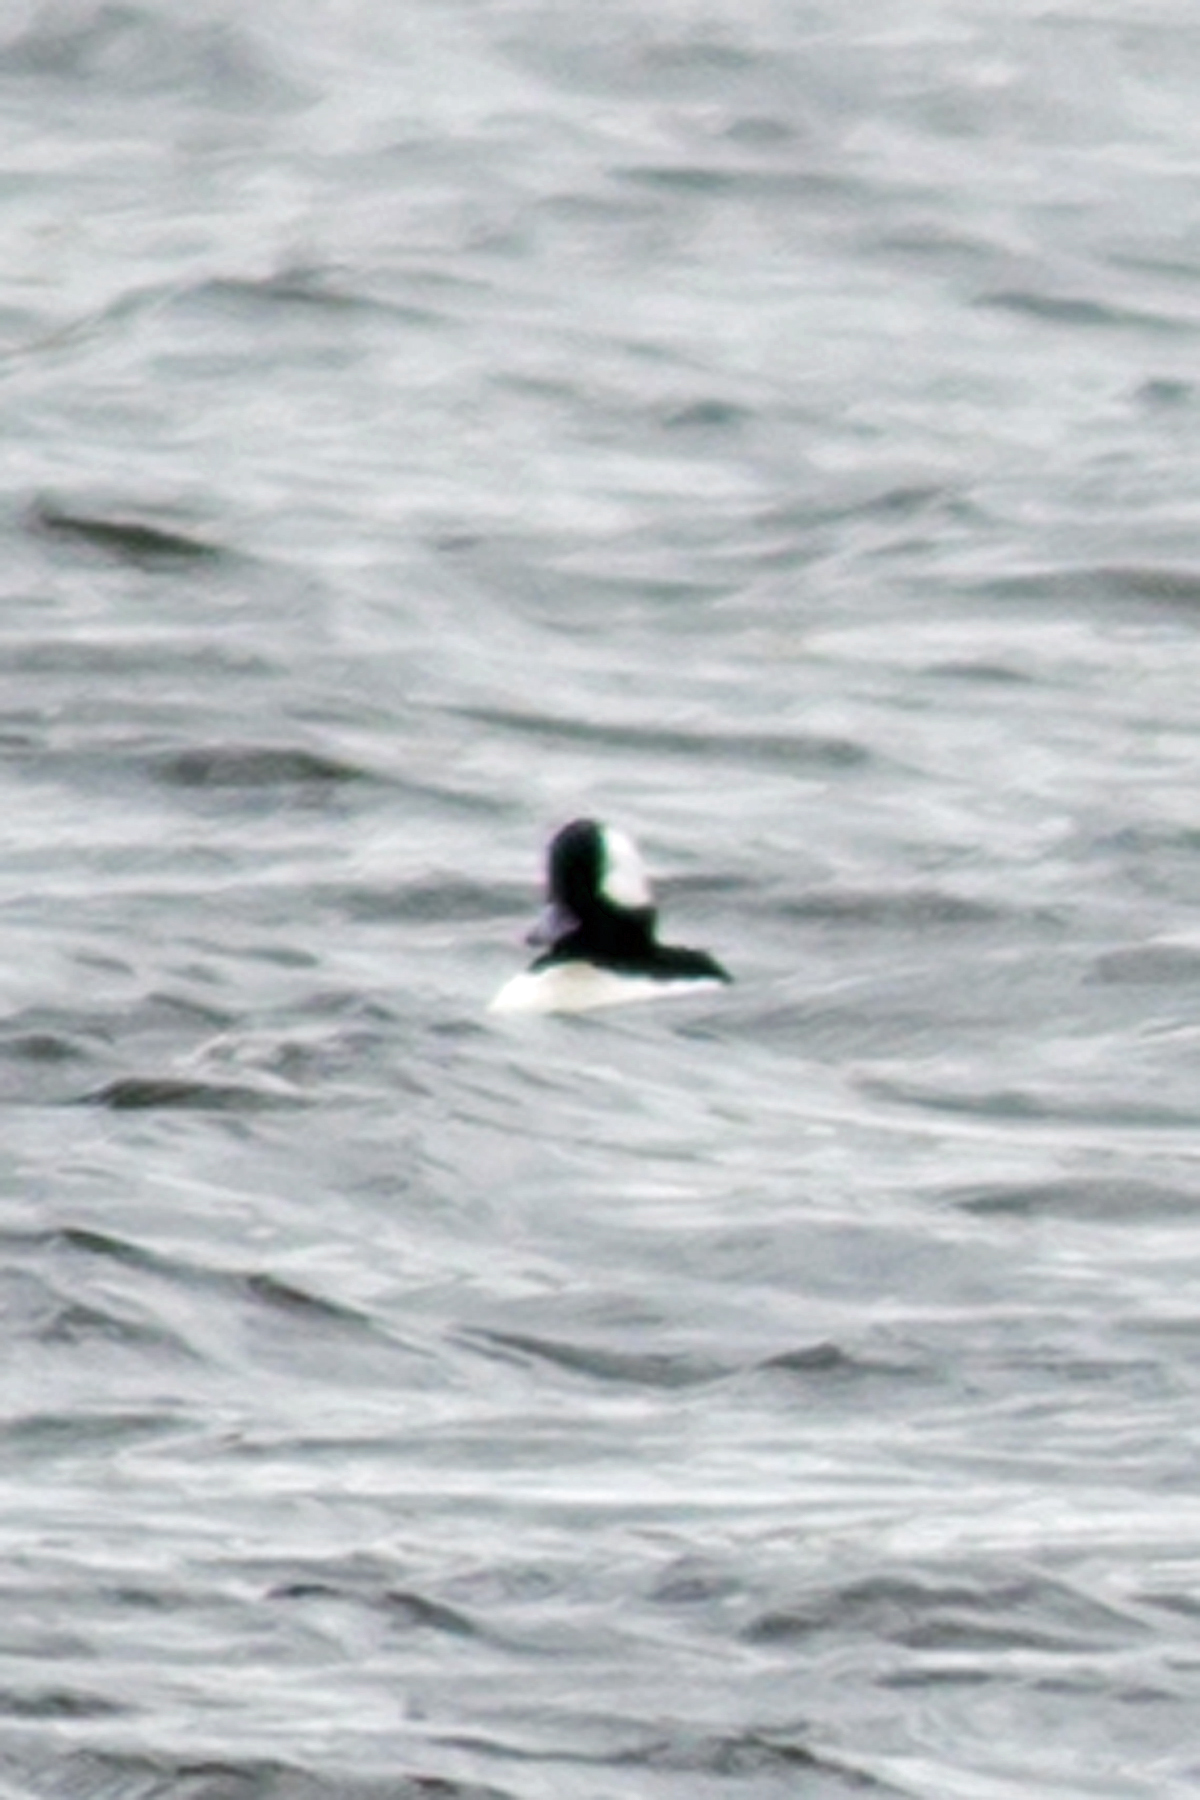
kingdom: Animalia
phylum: Chordata
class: Aves
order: Anseriformes
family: Anatidae
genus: Bucephala
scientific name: Bucephala albeola
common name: Bufflehead
